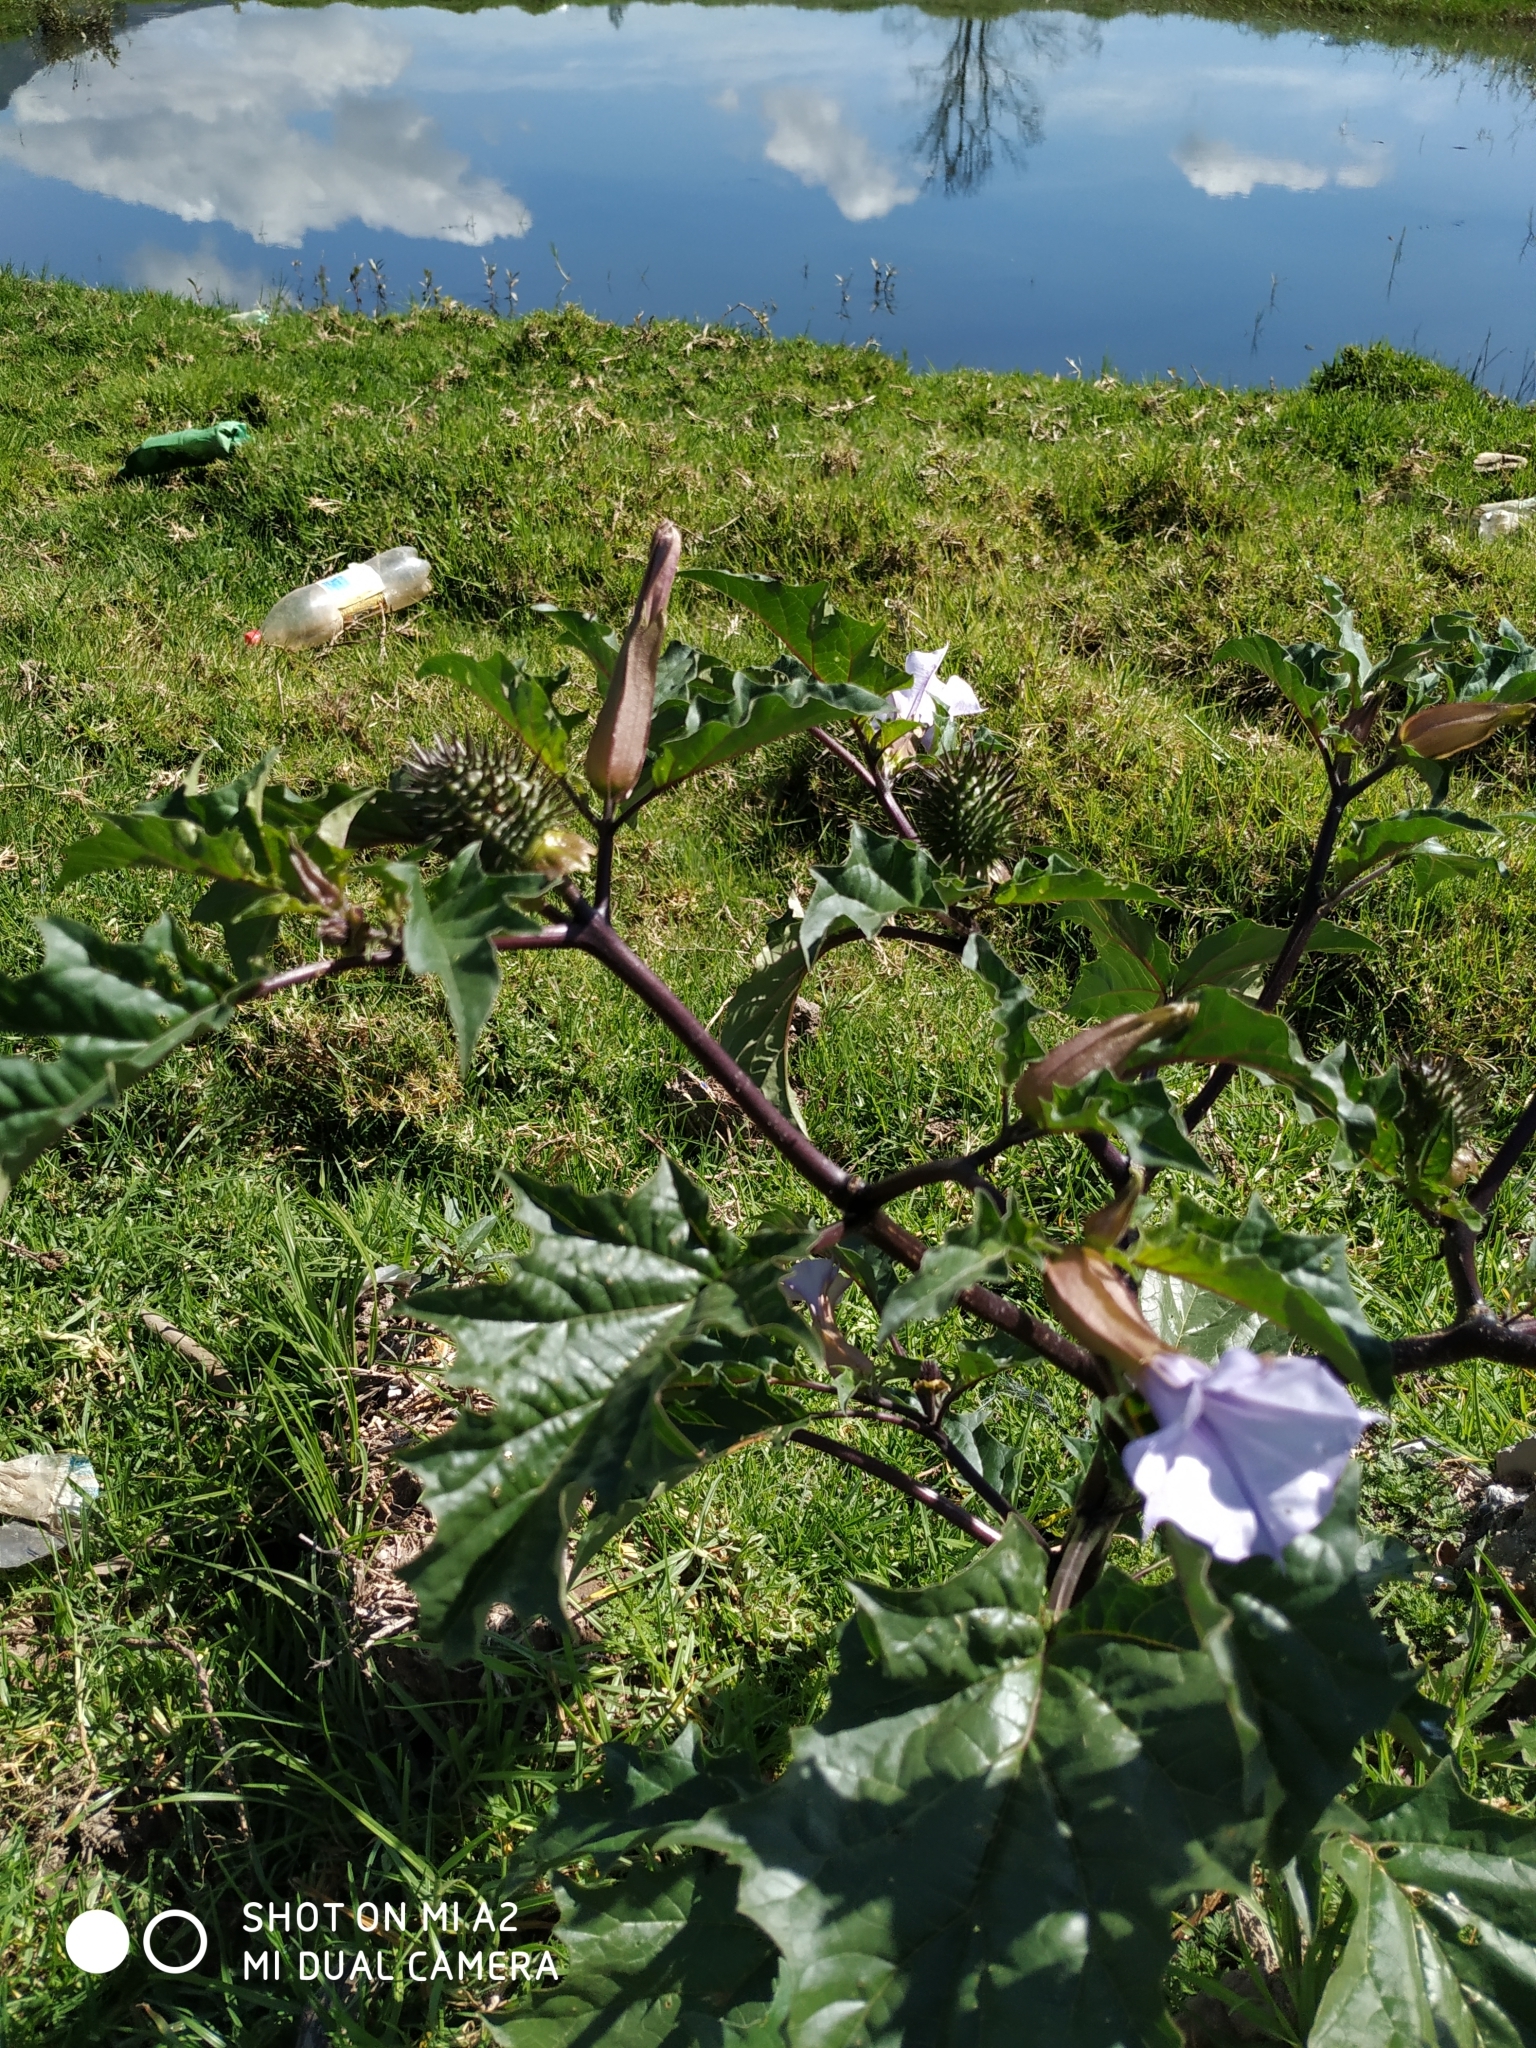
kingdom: Plantae
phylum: Tracheophyta
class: Magnoliopsida
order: Solanales
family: Solanaceae
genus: Datura
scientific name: Datura stramonium
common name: Thorn-apple
